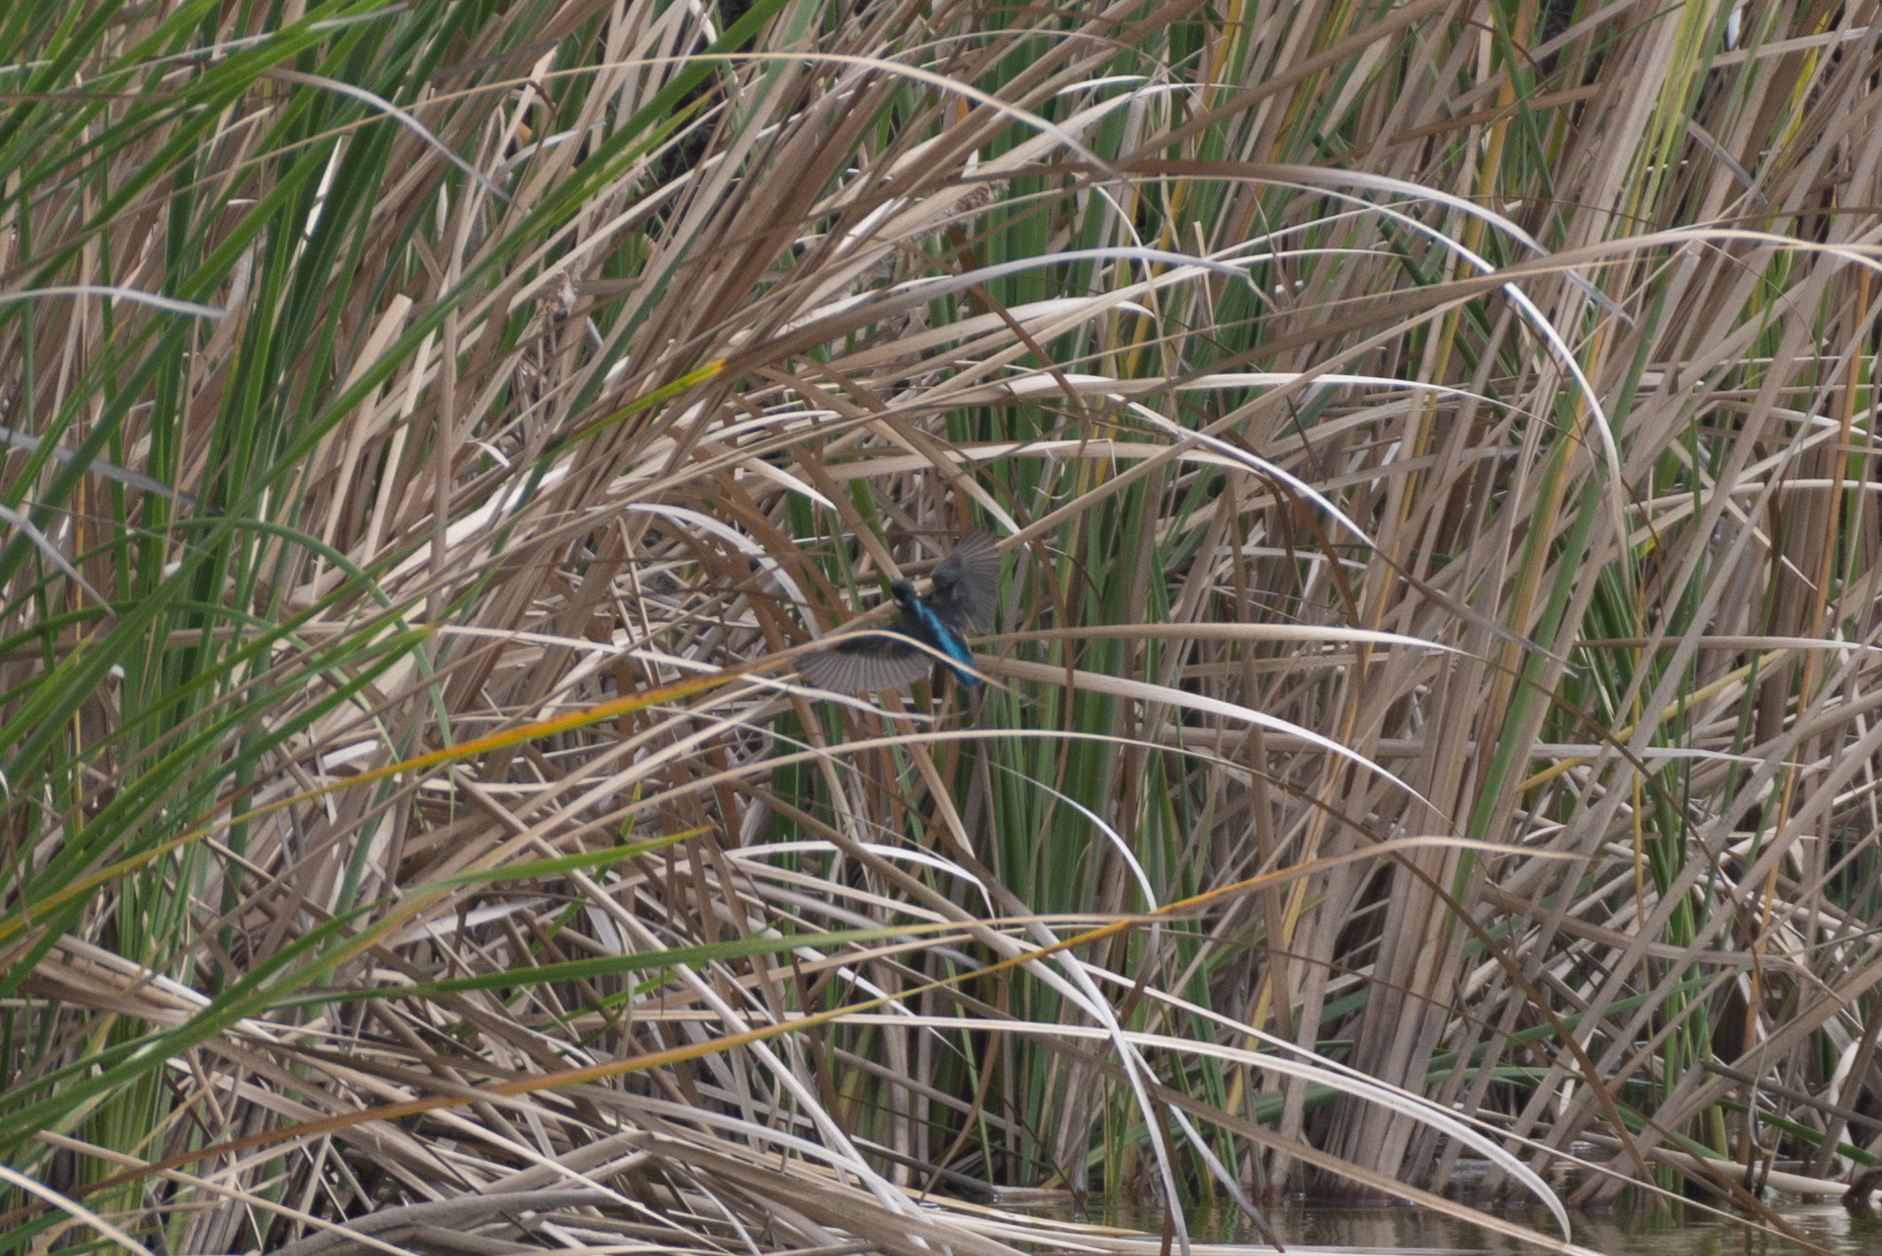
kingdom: Animalia
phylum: Chordata
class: Aves
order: Coraciiformes
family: Alcedinidae
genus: Alcedo
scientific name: Alcedo atthis
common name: Common kingfisher
